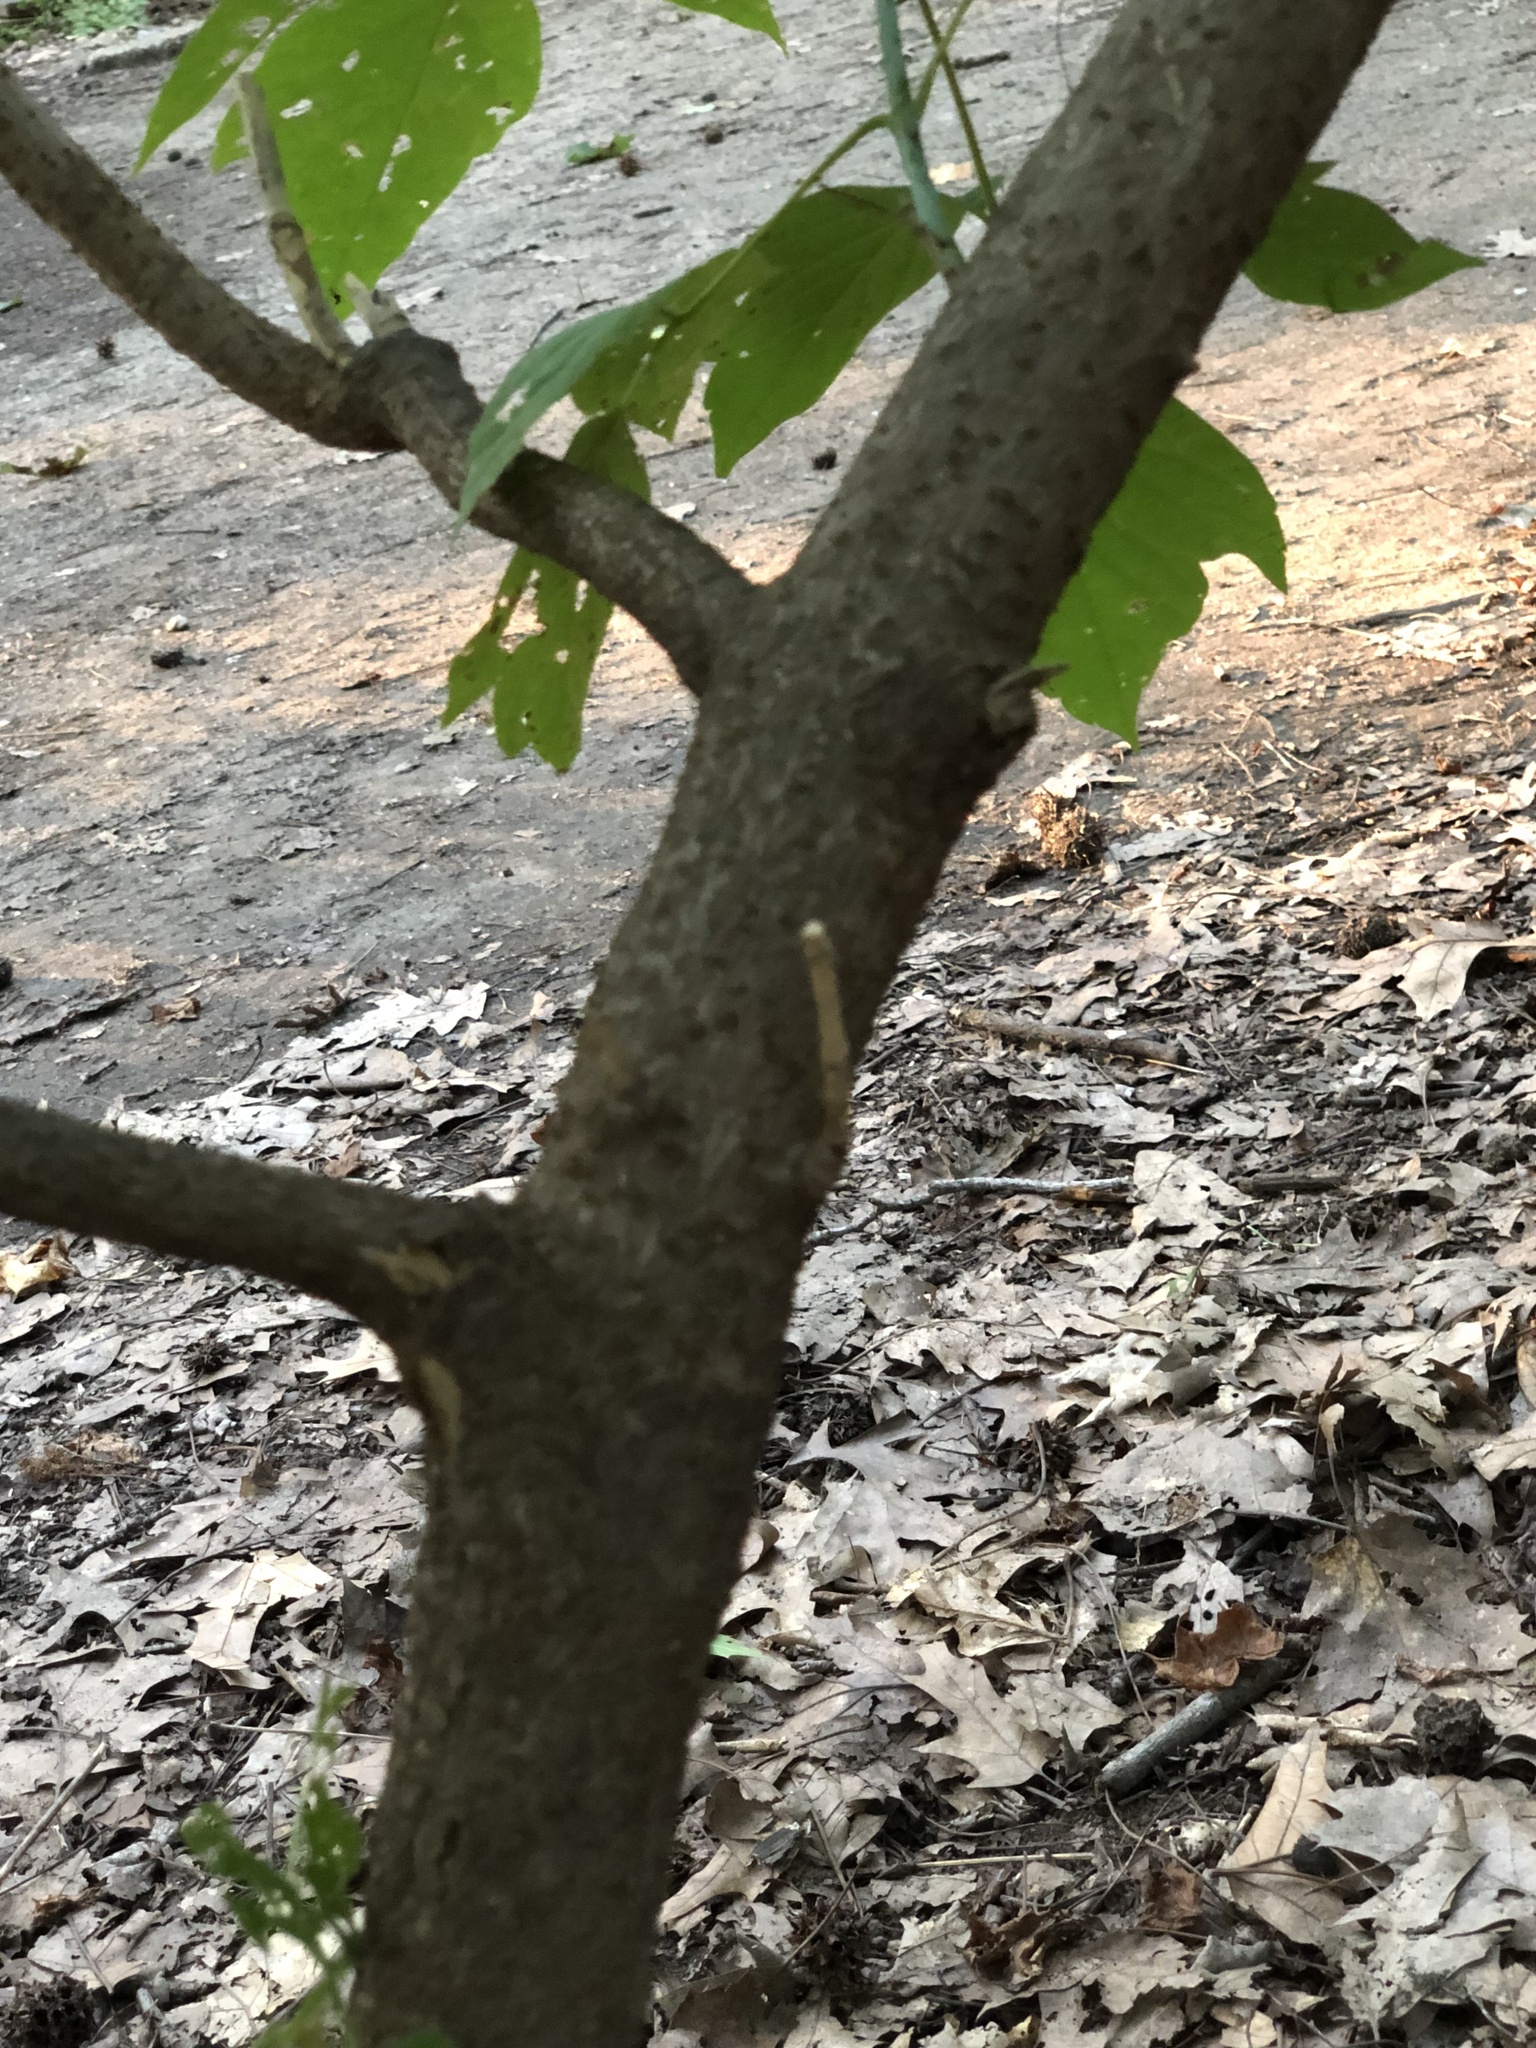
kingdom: Plantae
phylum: Tracheophyta
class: Magnoliopsida
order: Sapindales
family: Sapindaceae
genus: Acer
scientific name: Acer negundo
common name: Ashleaf maple
